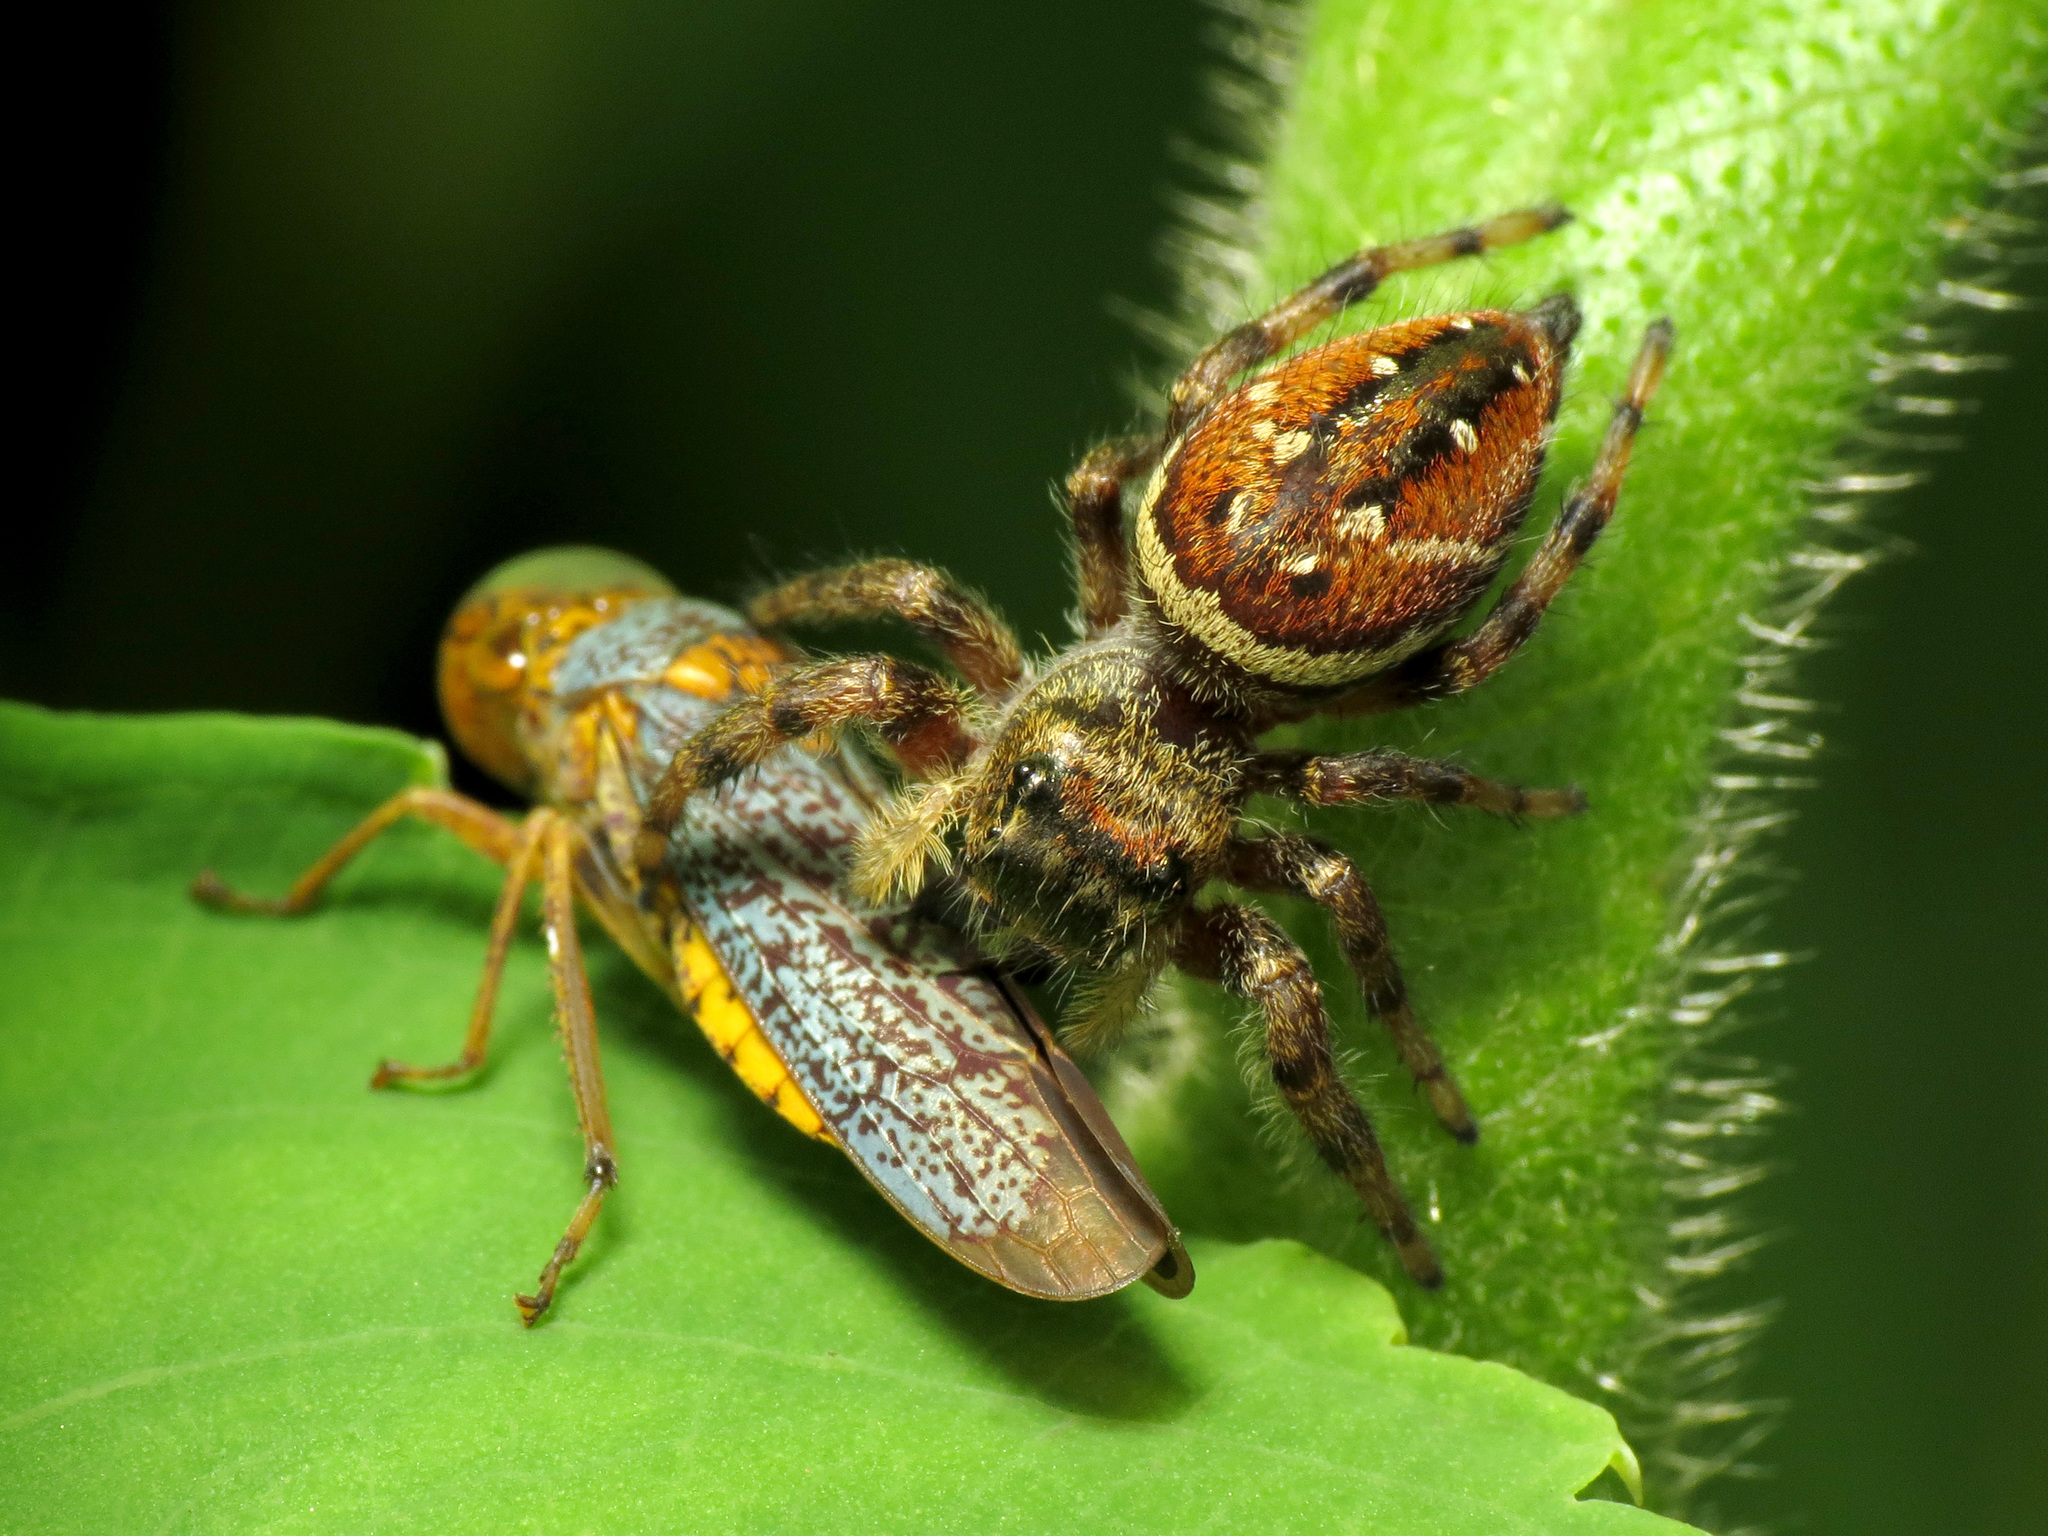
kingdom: Animalia
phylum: Arthropoda
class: Insecta
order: Hemiptera
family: Cicadellidae
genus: Oncometopia
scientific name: Oncometopia orbona
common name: Broad-headed sharpshooter
